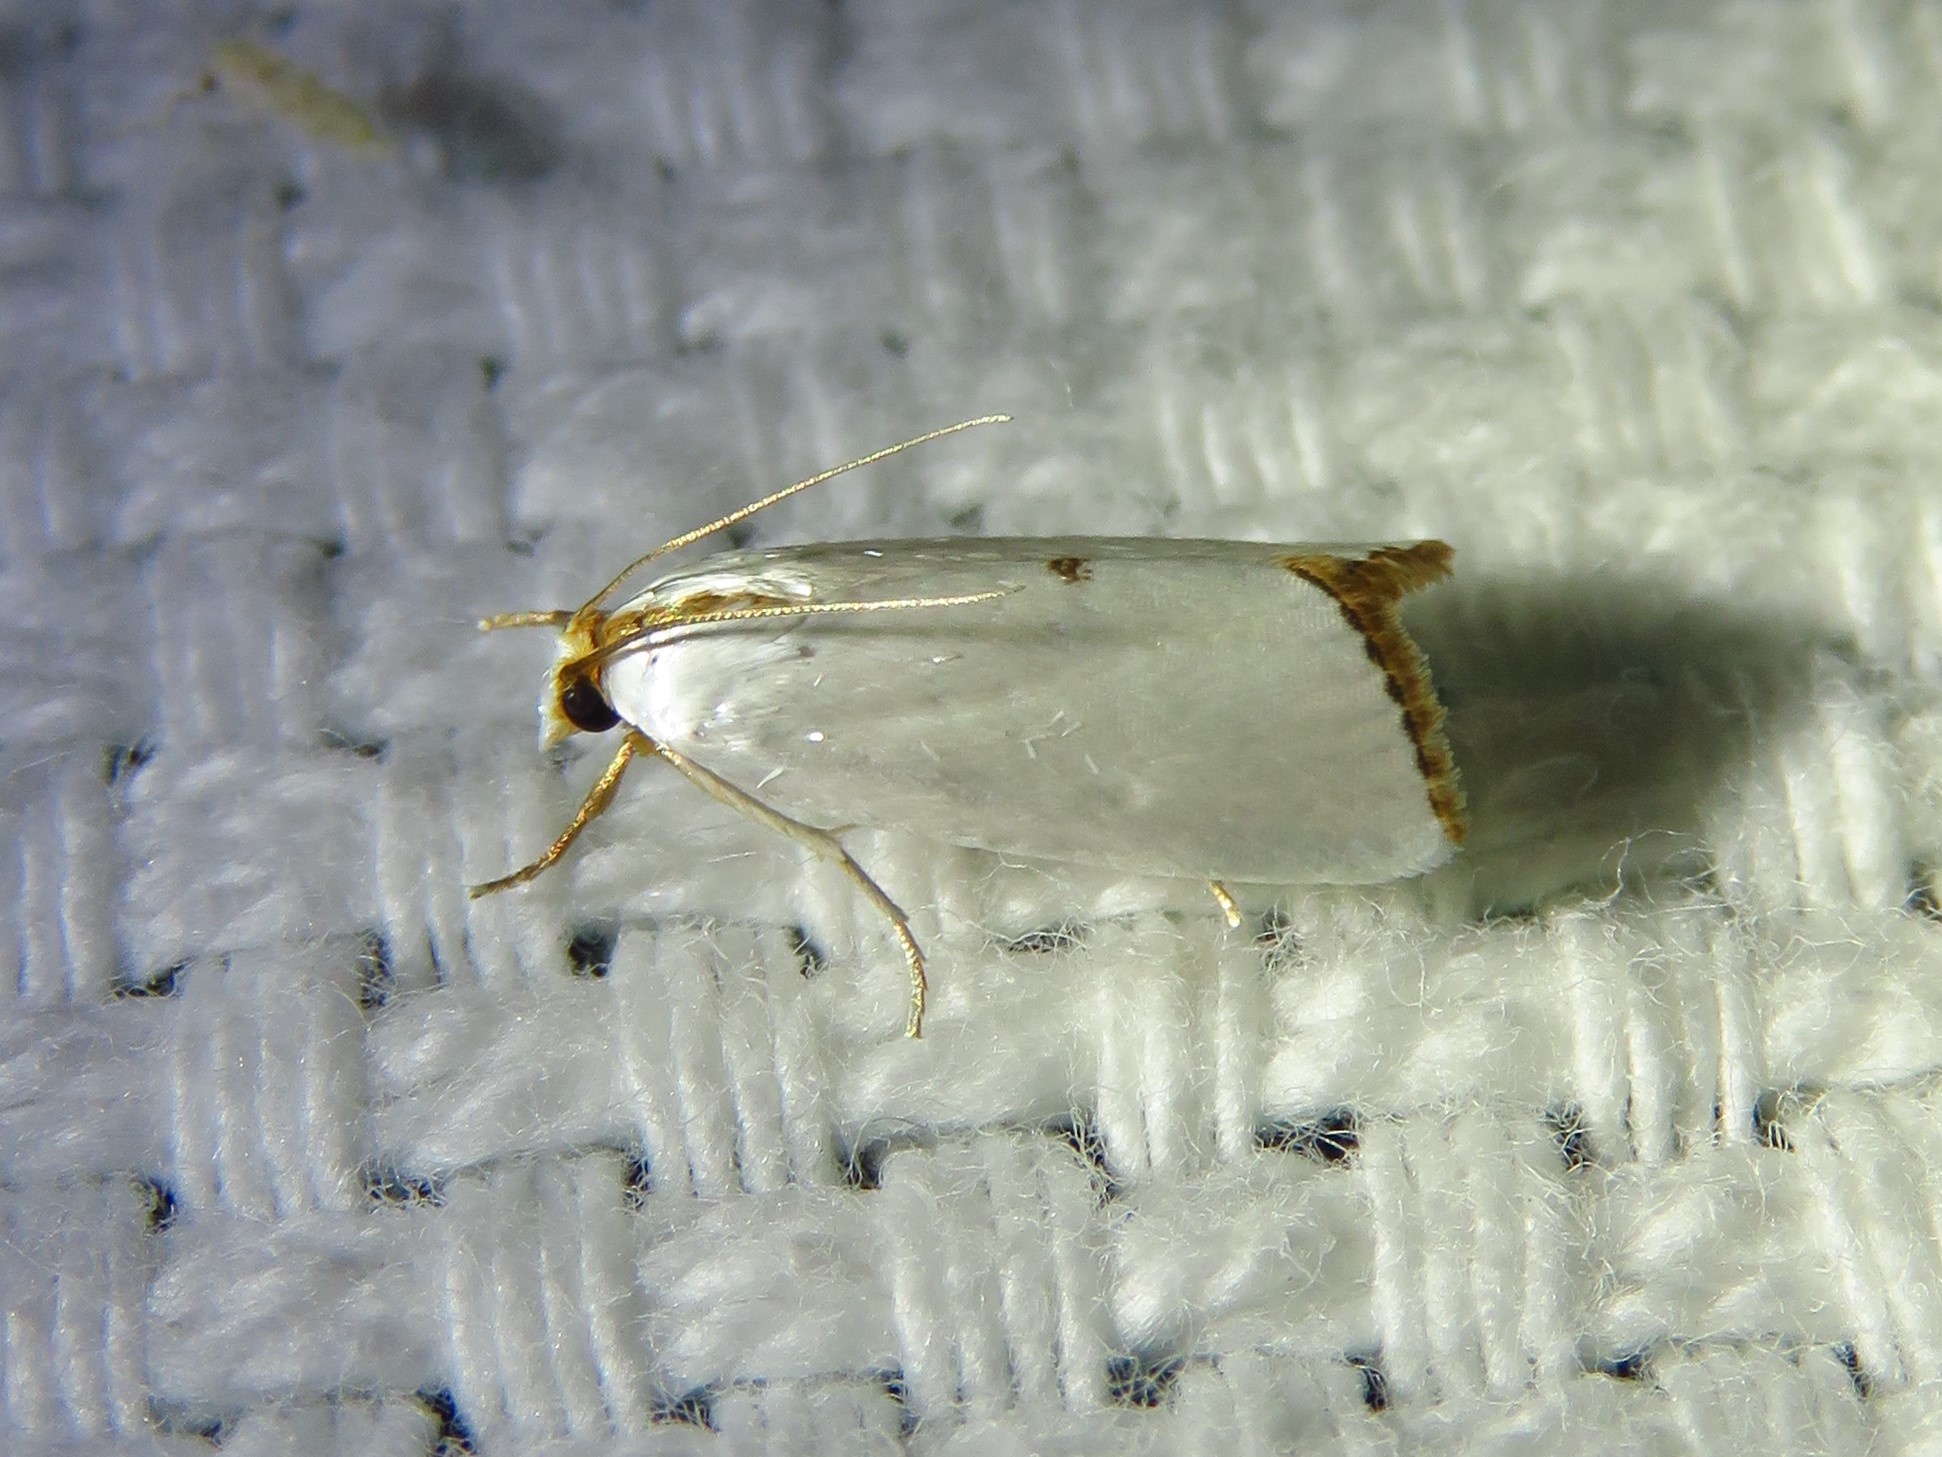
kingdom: Animalia
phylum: Arthropoda
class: Insecta
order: Lepidoptera
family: Crambidae
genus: Argyria
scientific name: Argyria nivalis
